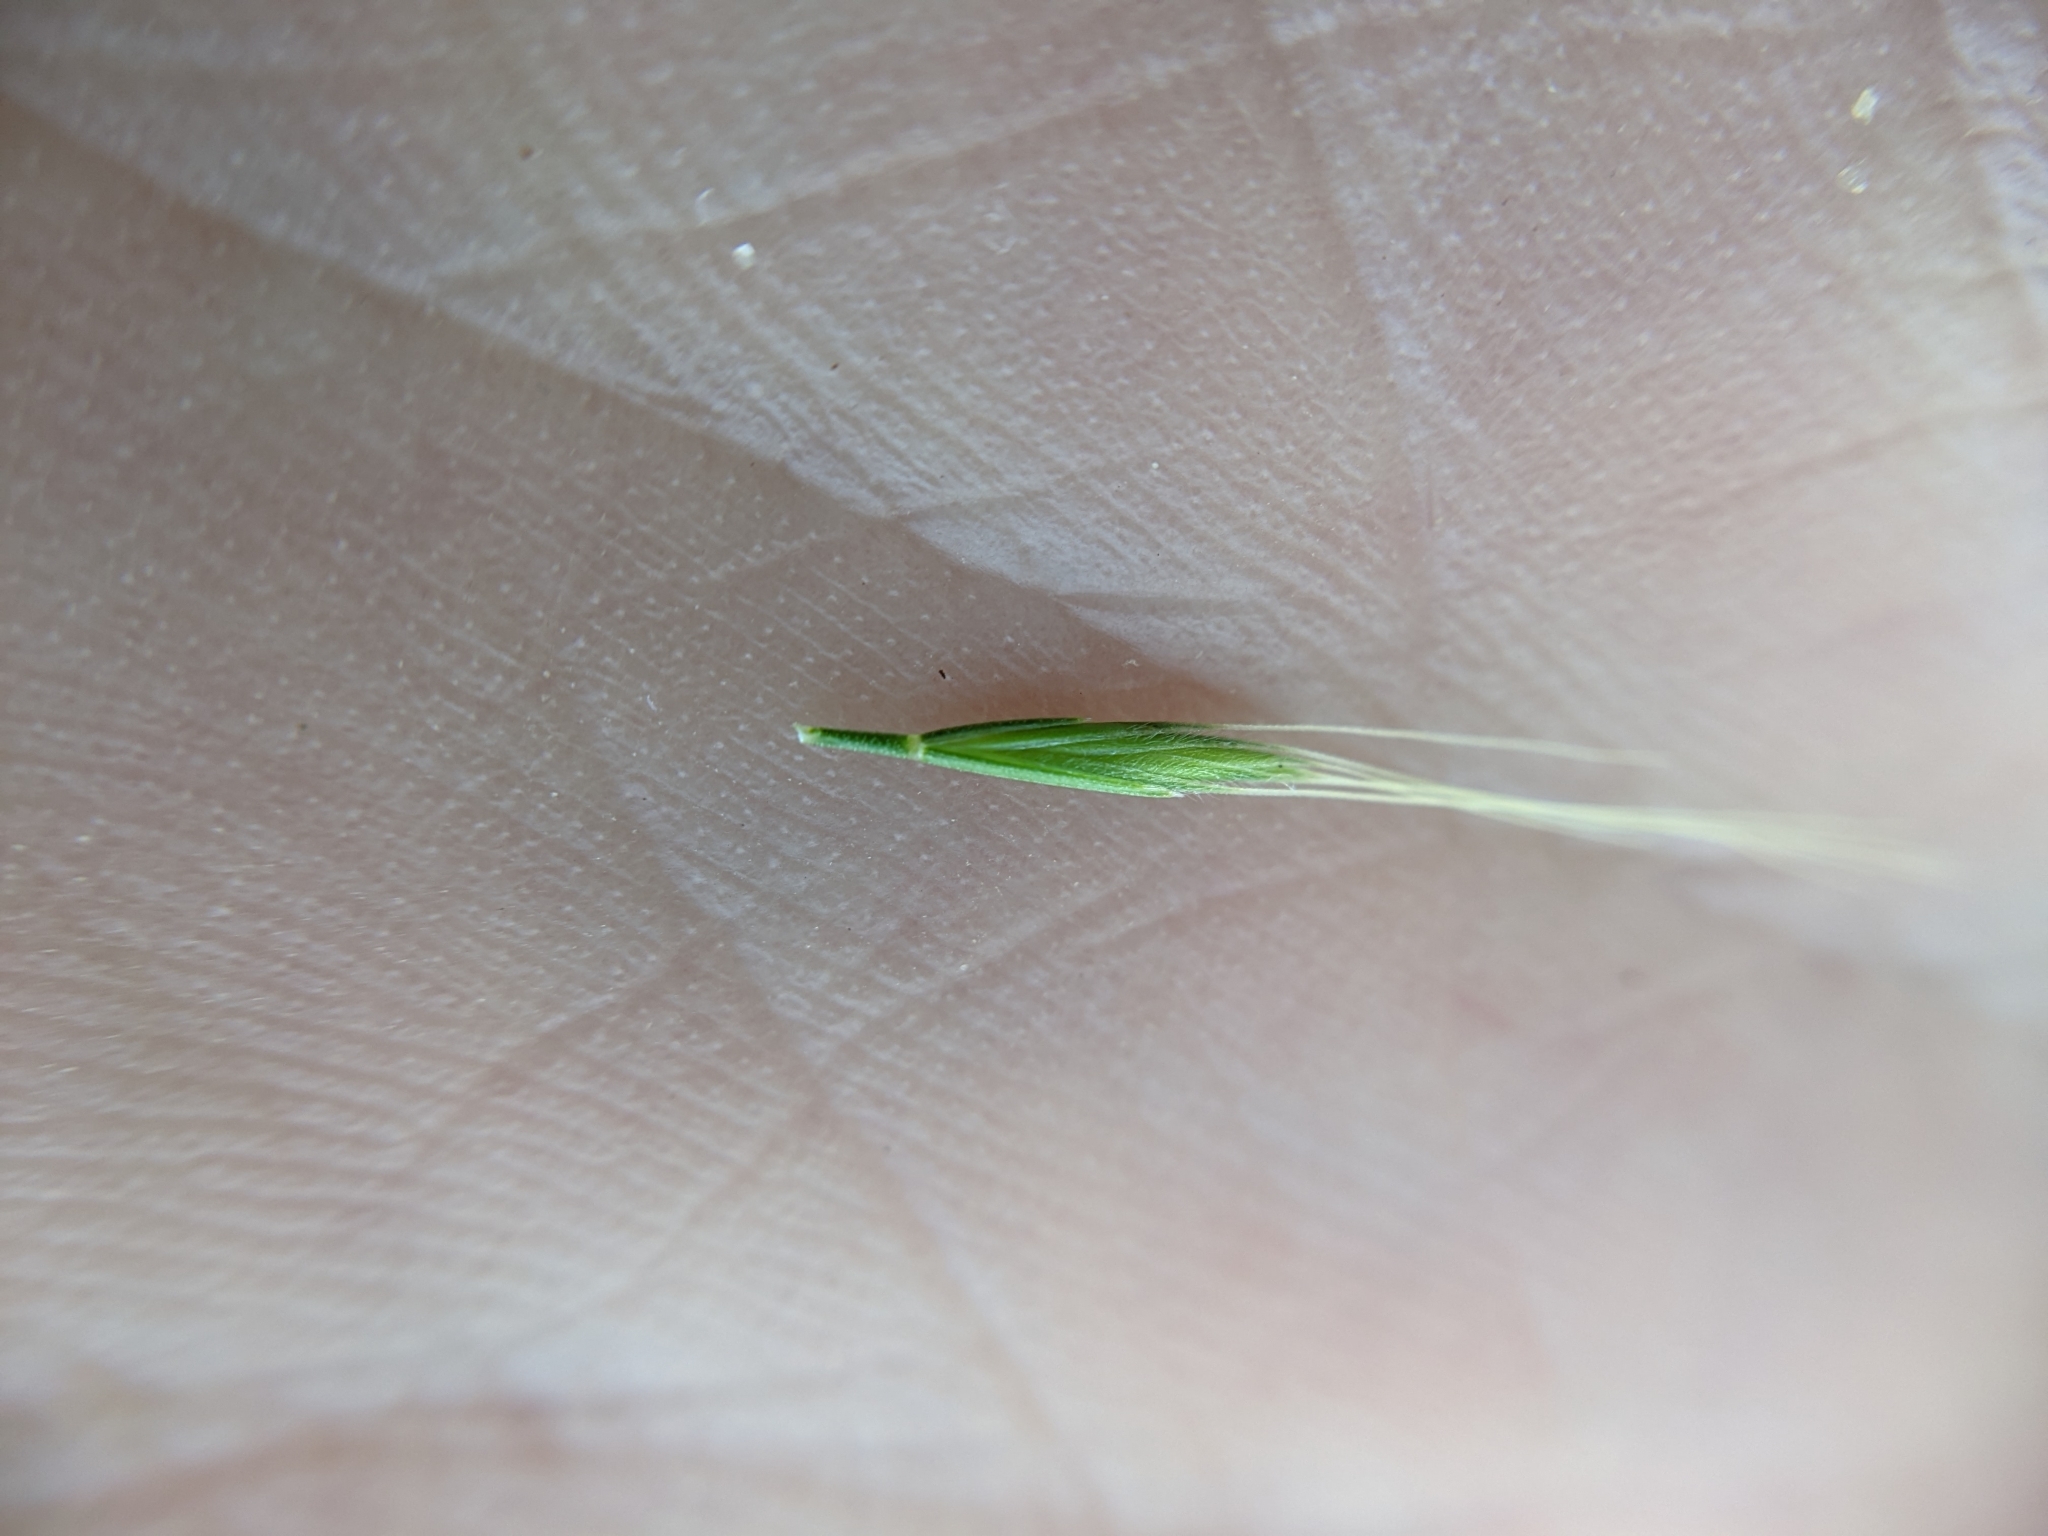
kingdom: Plantae
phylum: Tracheophyta
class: Liliopsida
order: Poales
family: Poaceae
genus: Festuca
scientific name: Festuca sciurea
